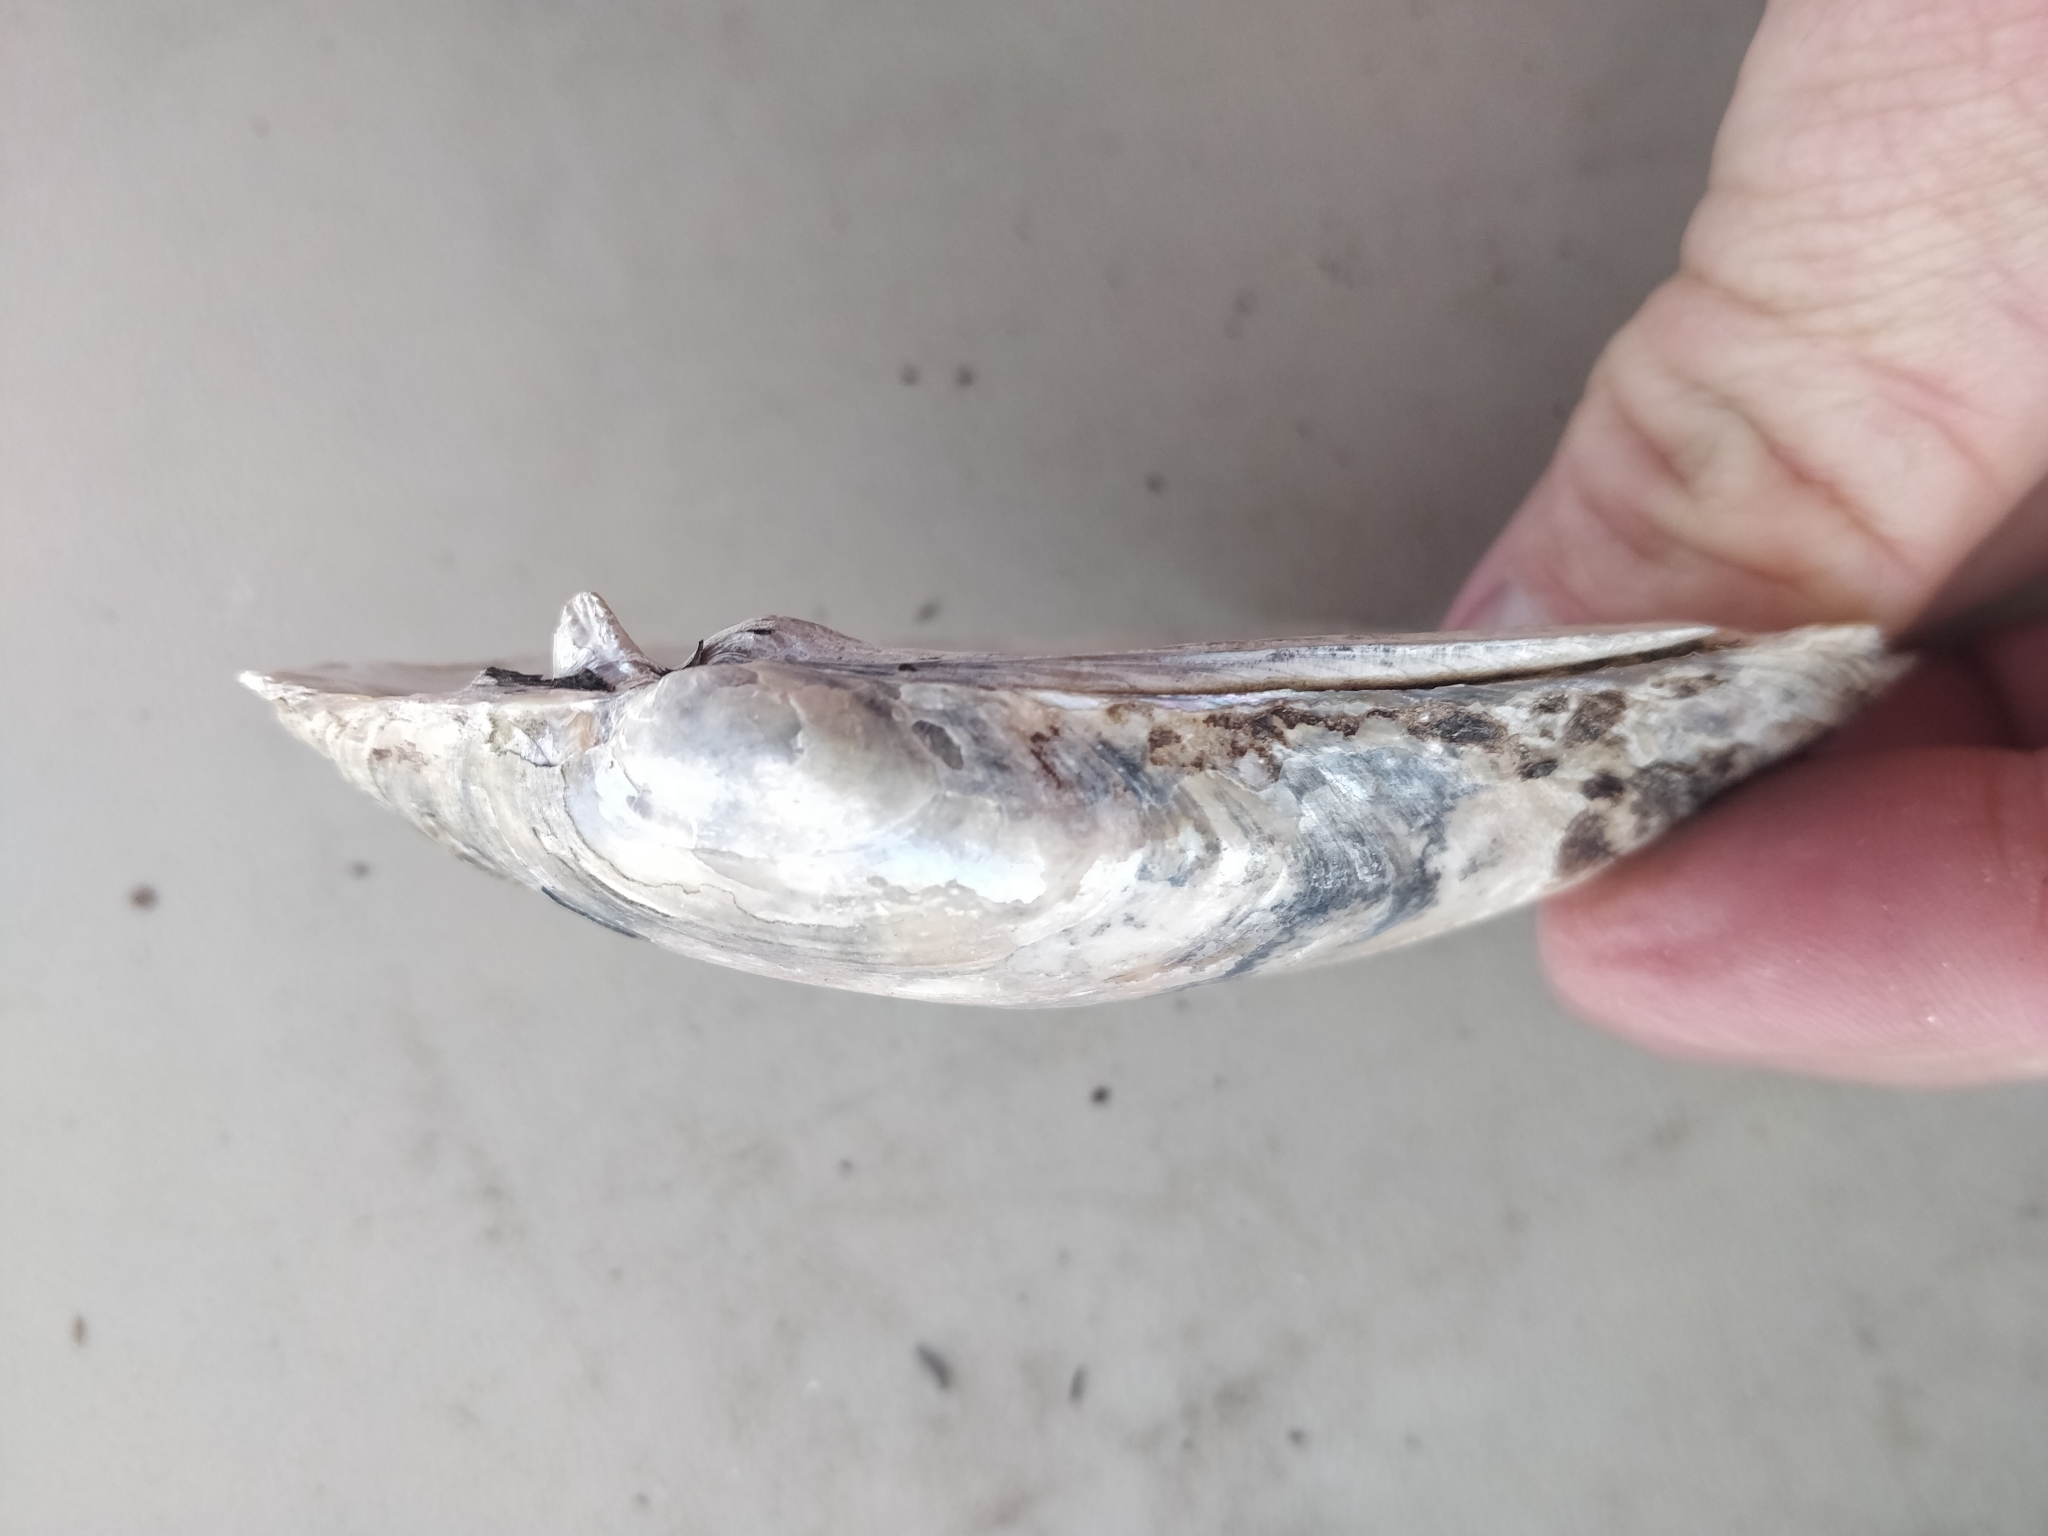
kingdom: Animalia
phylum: Mollusca
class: Bivalvia
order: Unionida
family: Unionidae
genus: Lampsilis
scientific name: Lampsilis siliquoidea
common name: Fatmucket
